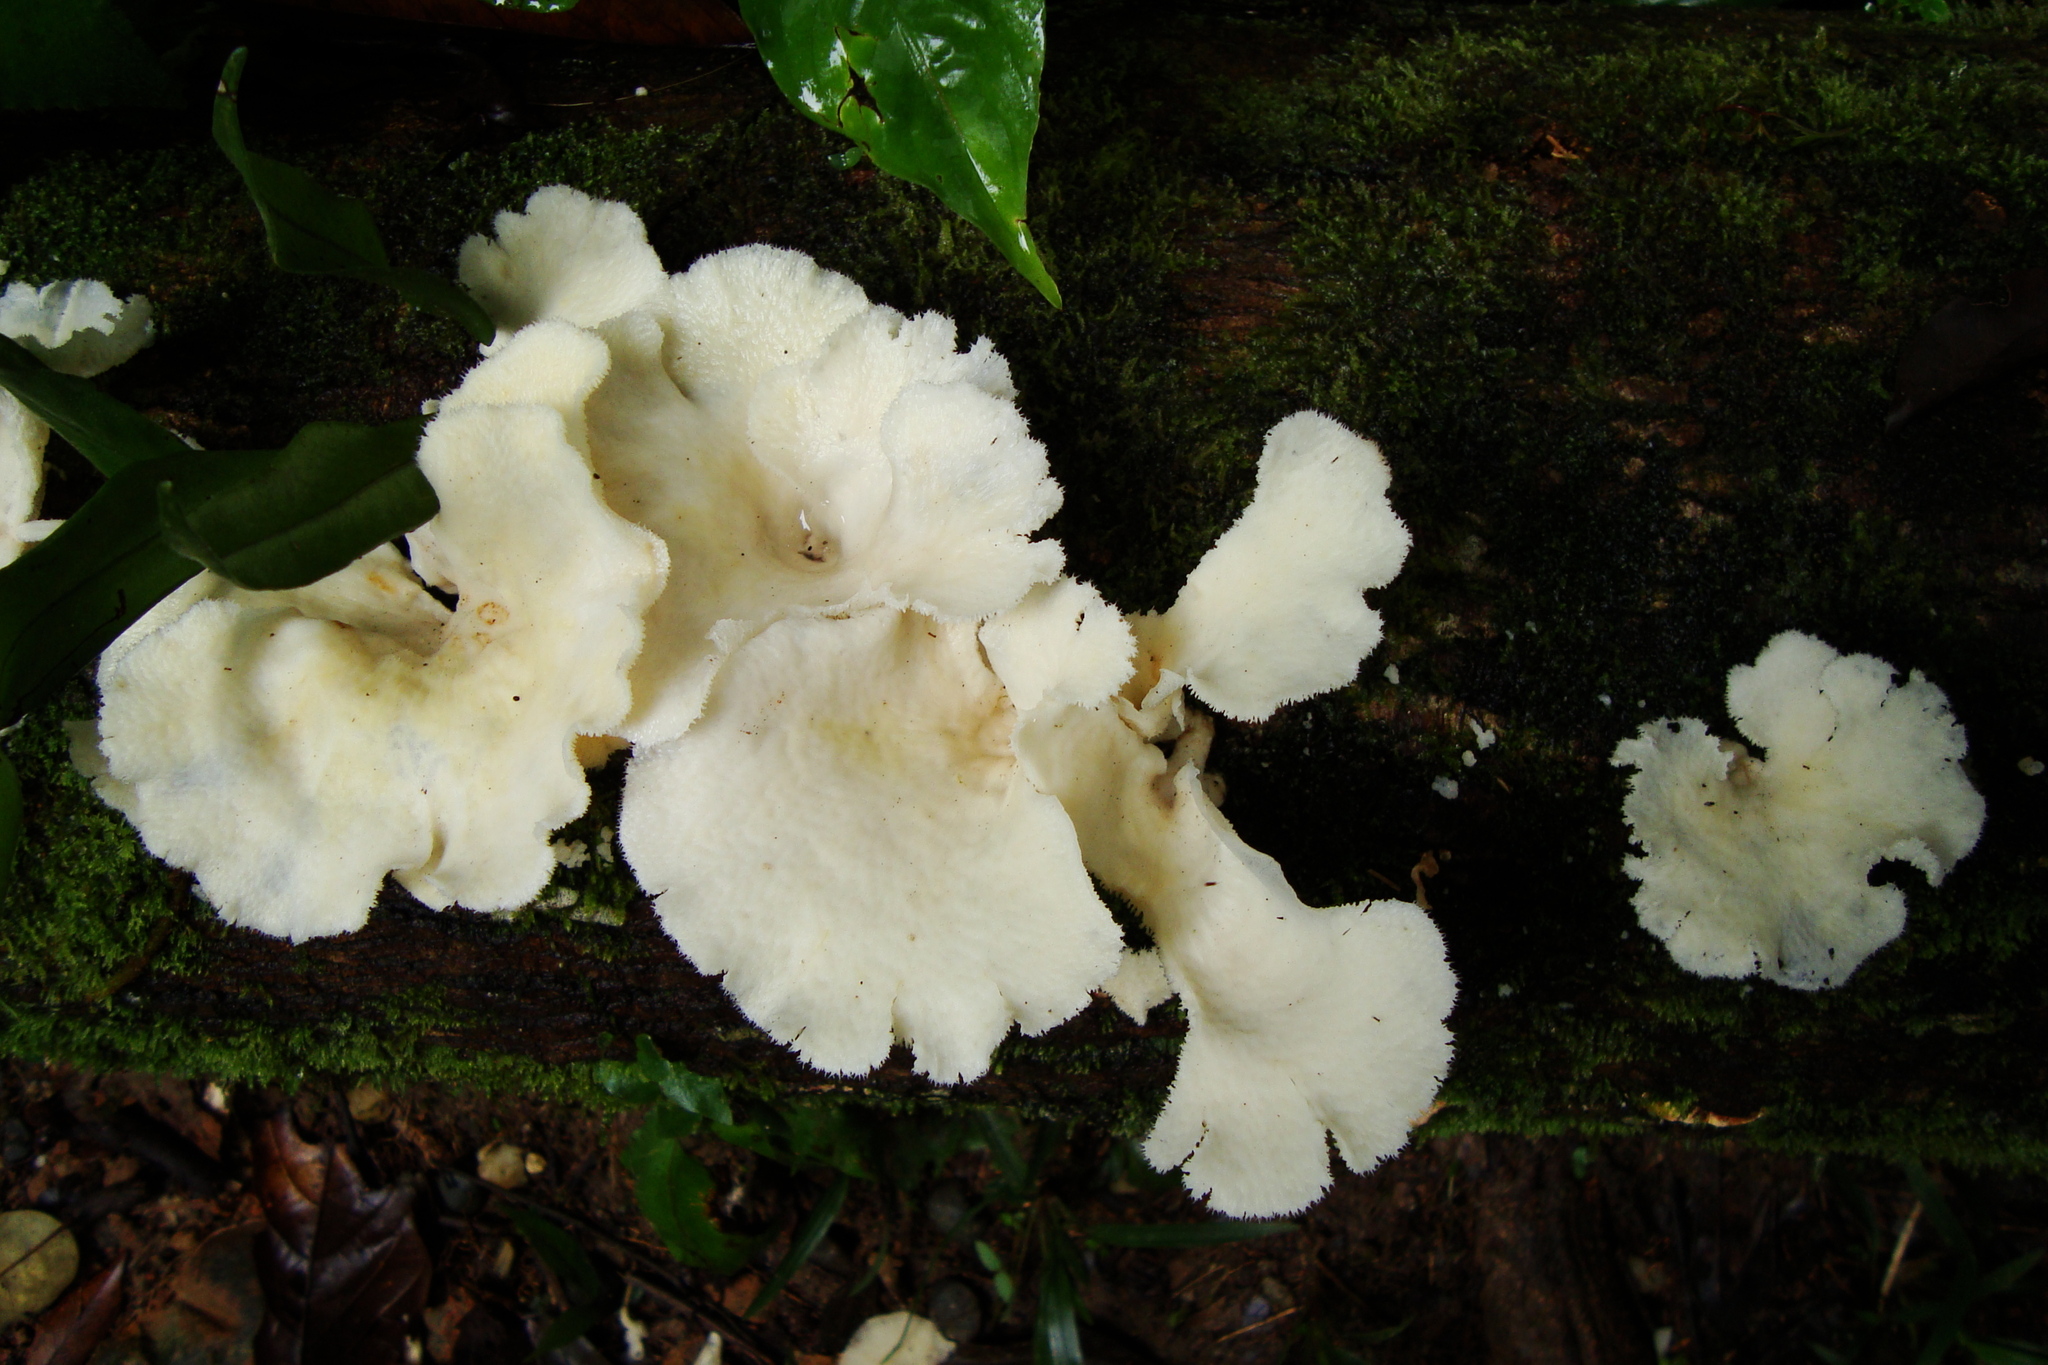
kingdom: Fungi
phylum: Basidiomycota
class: Agaricomycetes
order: Polyporales
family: Polyporaceae
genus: Favolus
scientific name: Favolus tenuiculus
